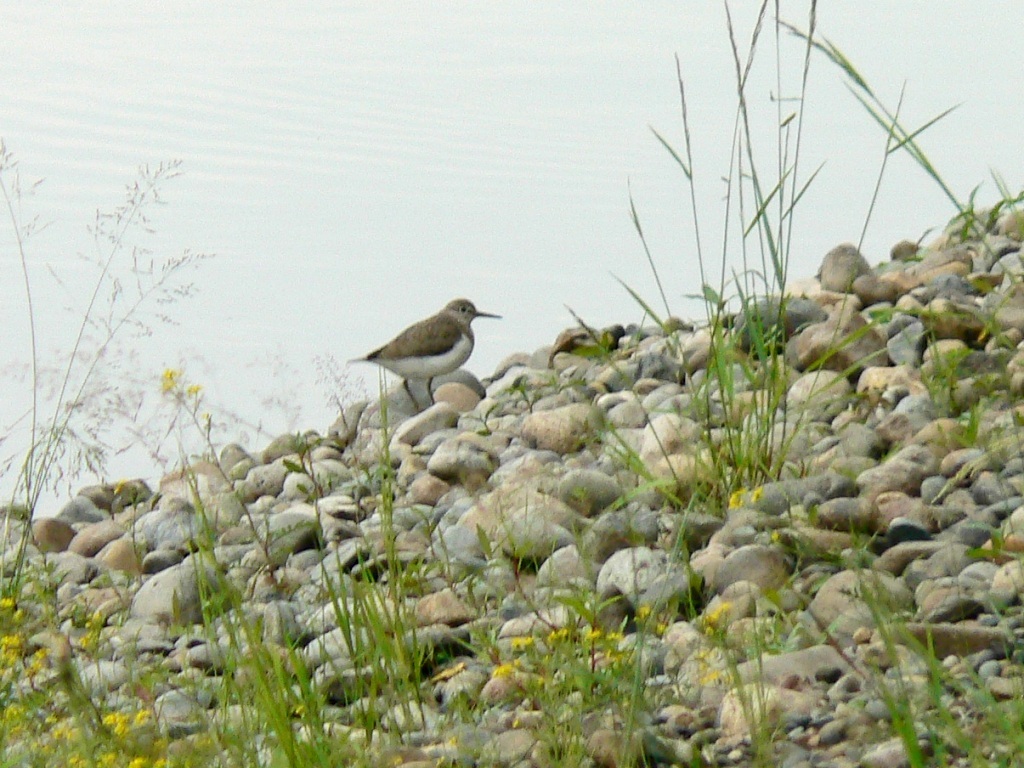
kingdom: Animalia
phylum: Chordata
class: Aves
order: Charadriiformes
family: Scolopacidae
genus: Actitis
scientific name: Actitis hypoleucos
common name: Common sandpiper
